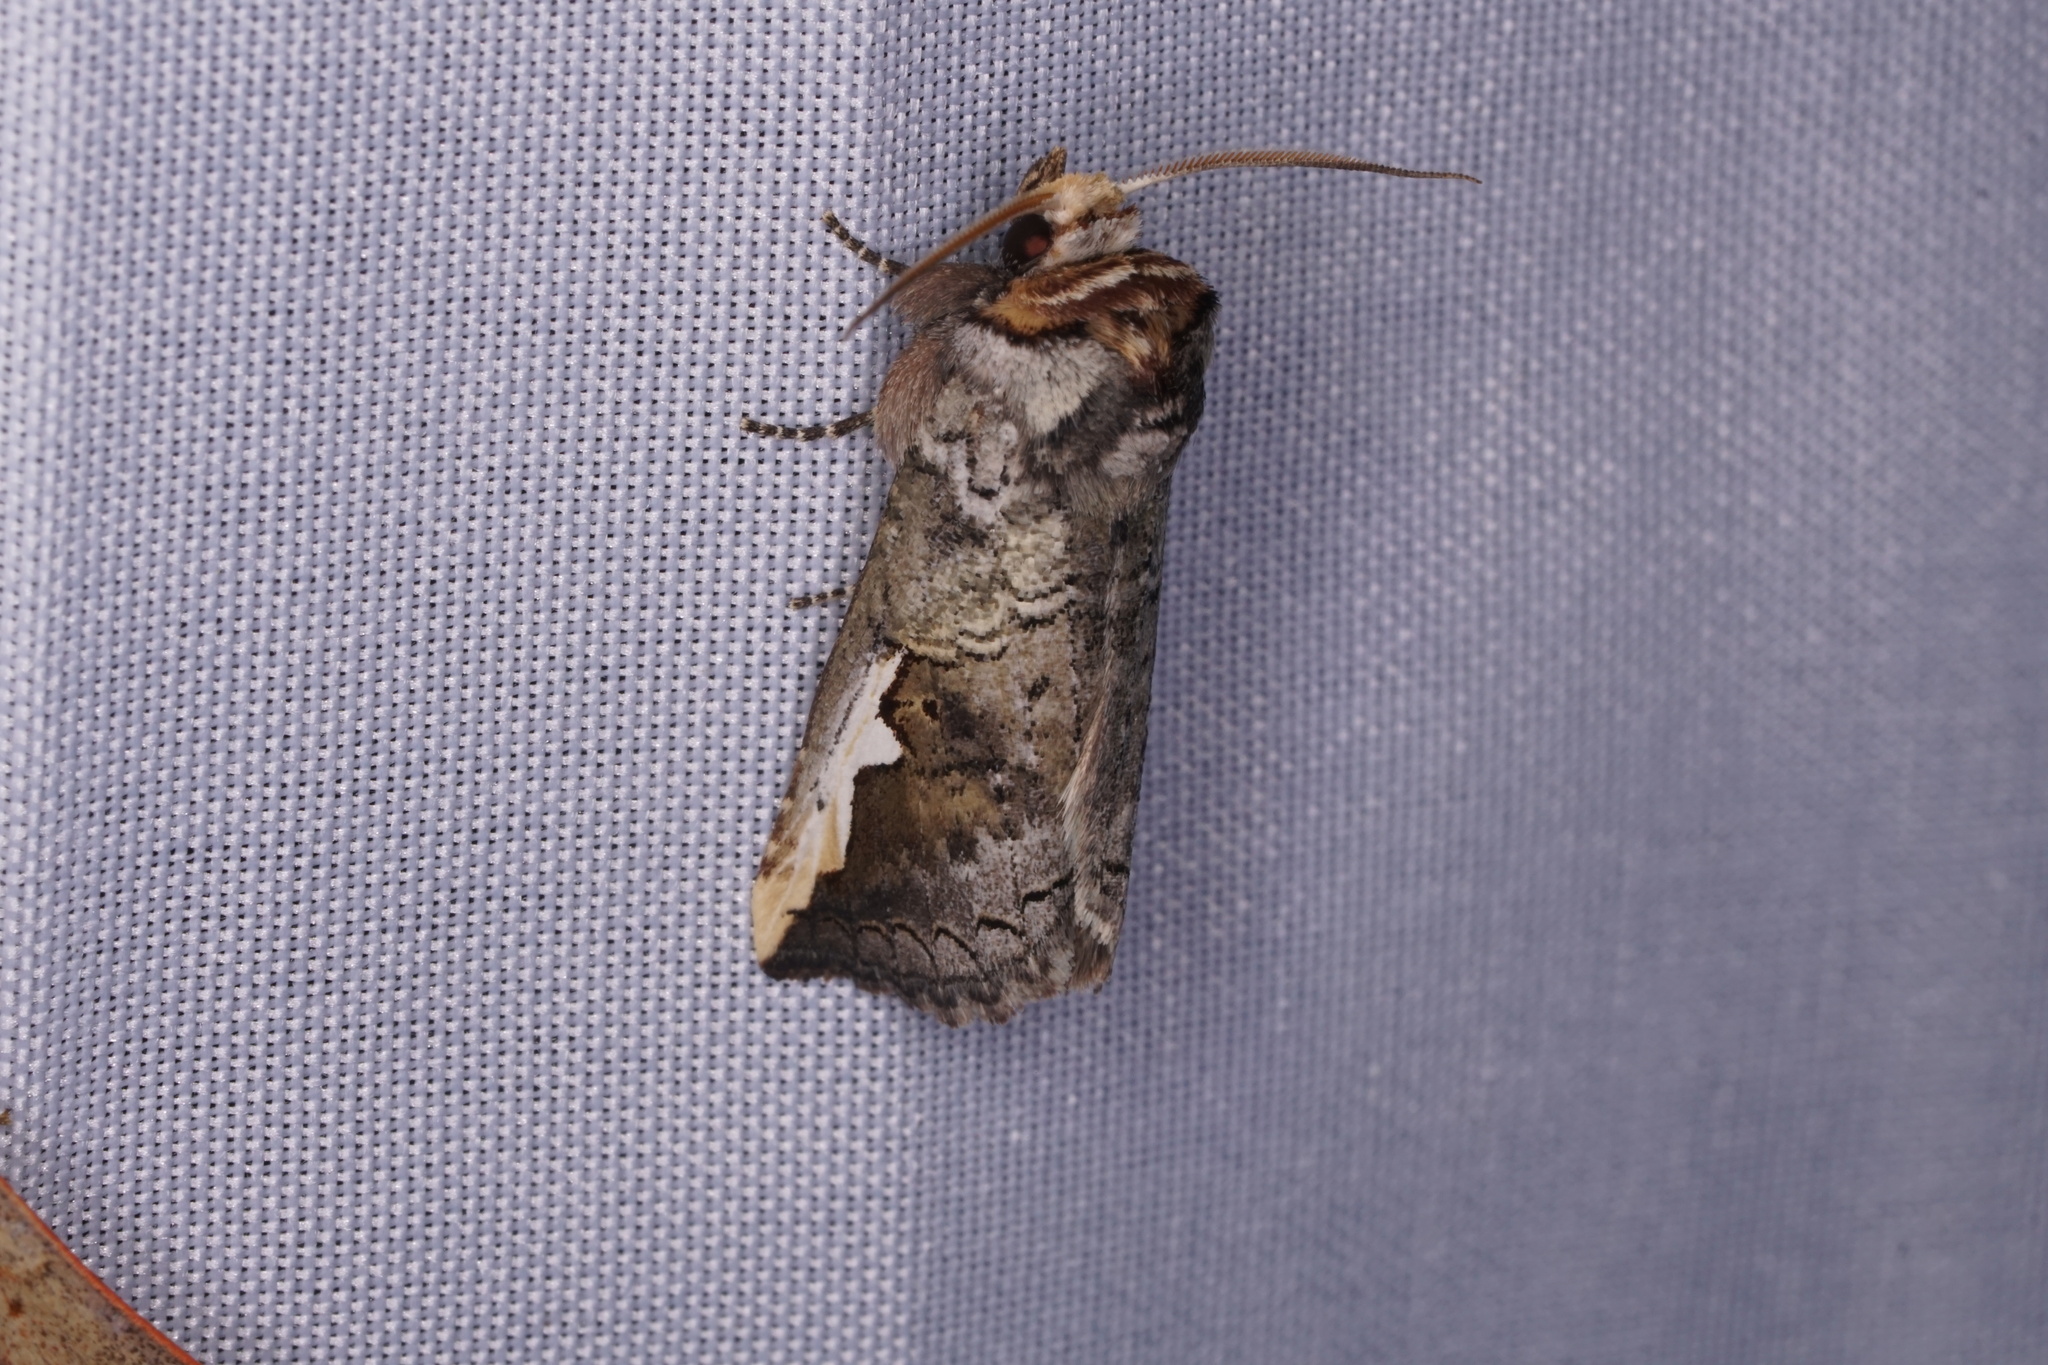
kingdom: Animalia
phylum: Arthropoda
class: Insecta
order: Lepidoptera
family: Notodontidae
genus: Symmerista
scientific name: Symmerista albifrons
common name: White-headed prominent
